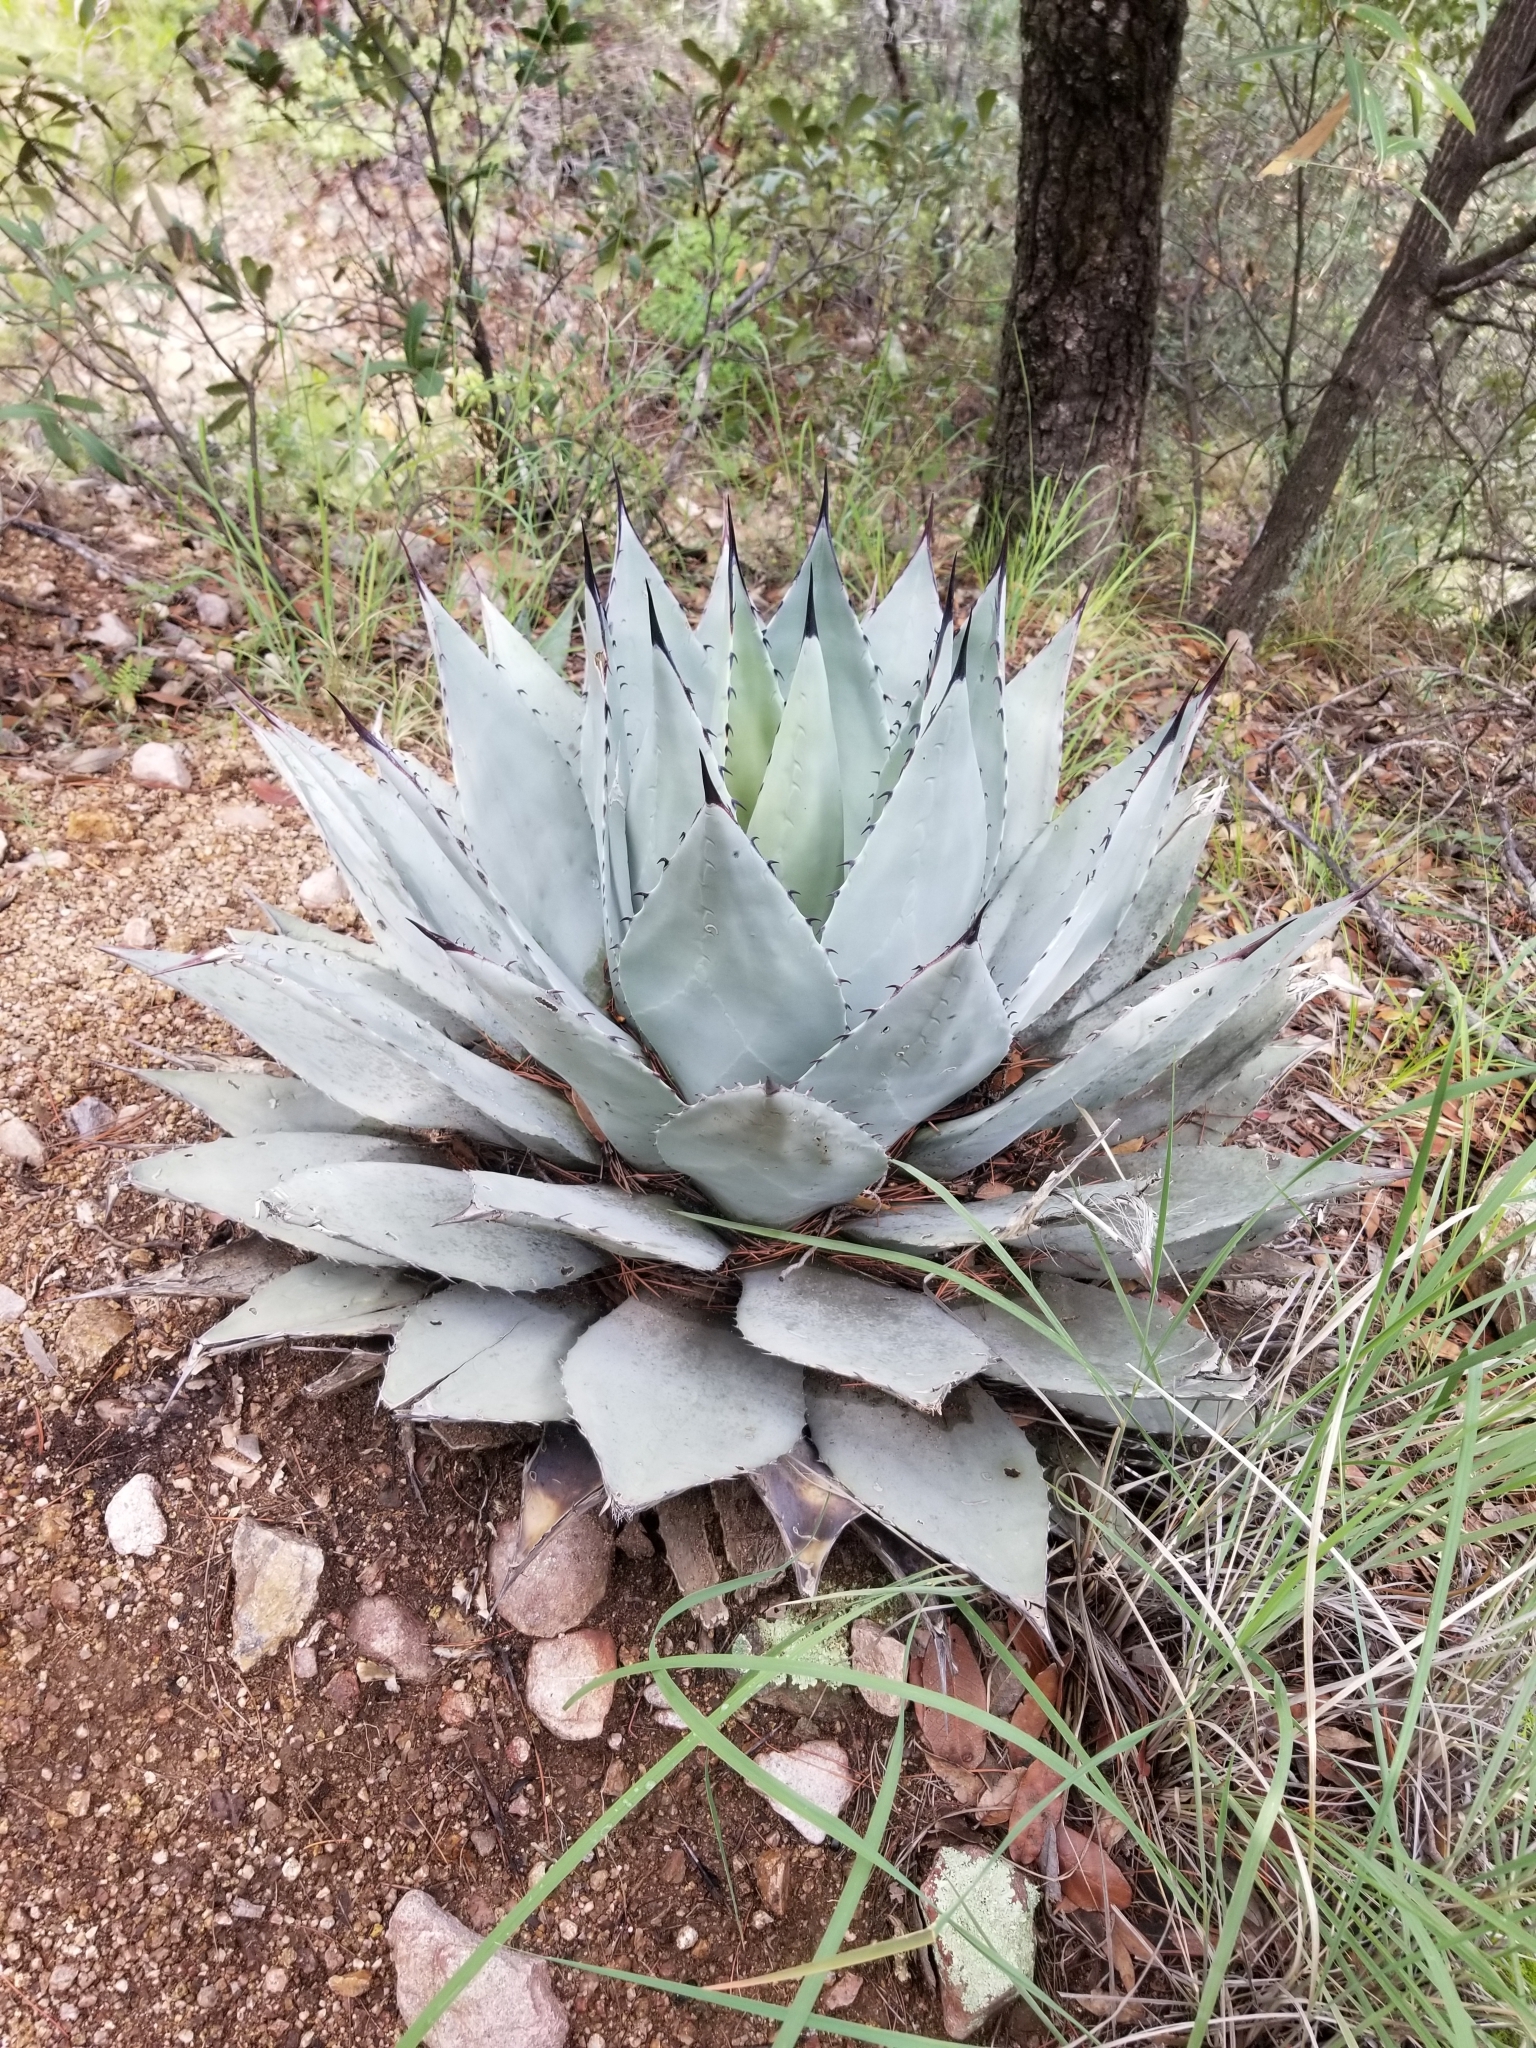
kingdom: Plantae
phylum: Tracheophyta
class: Liliopsida
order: Asparagales
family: Asparagaceae
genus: Agave
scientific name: Agave parryi
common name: Parry's agave
